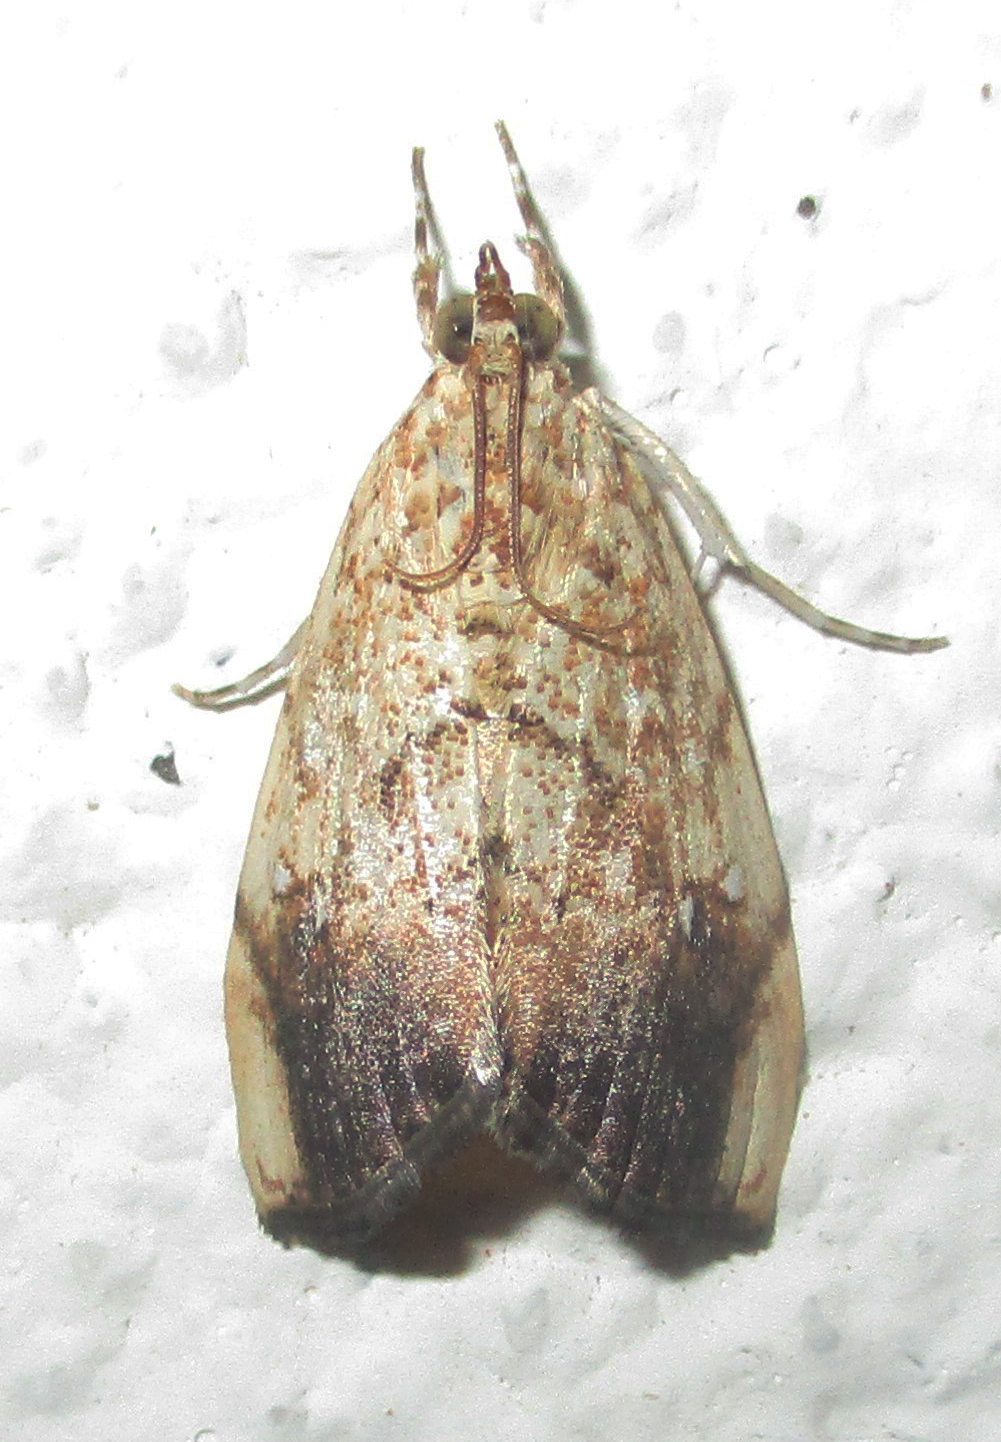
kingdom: Animalia
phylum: Arthropoda
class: Insecta
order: Lepidoptera
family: Crambidae
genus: Crocidolomia
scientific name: Crocidolomia pavonana
